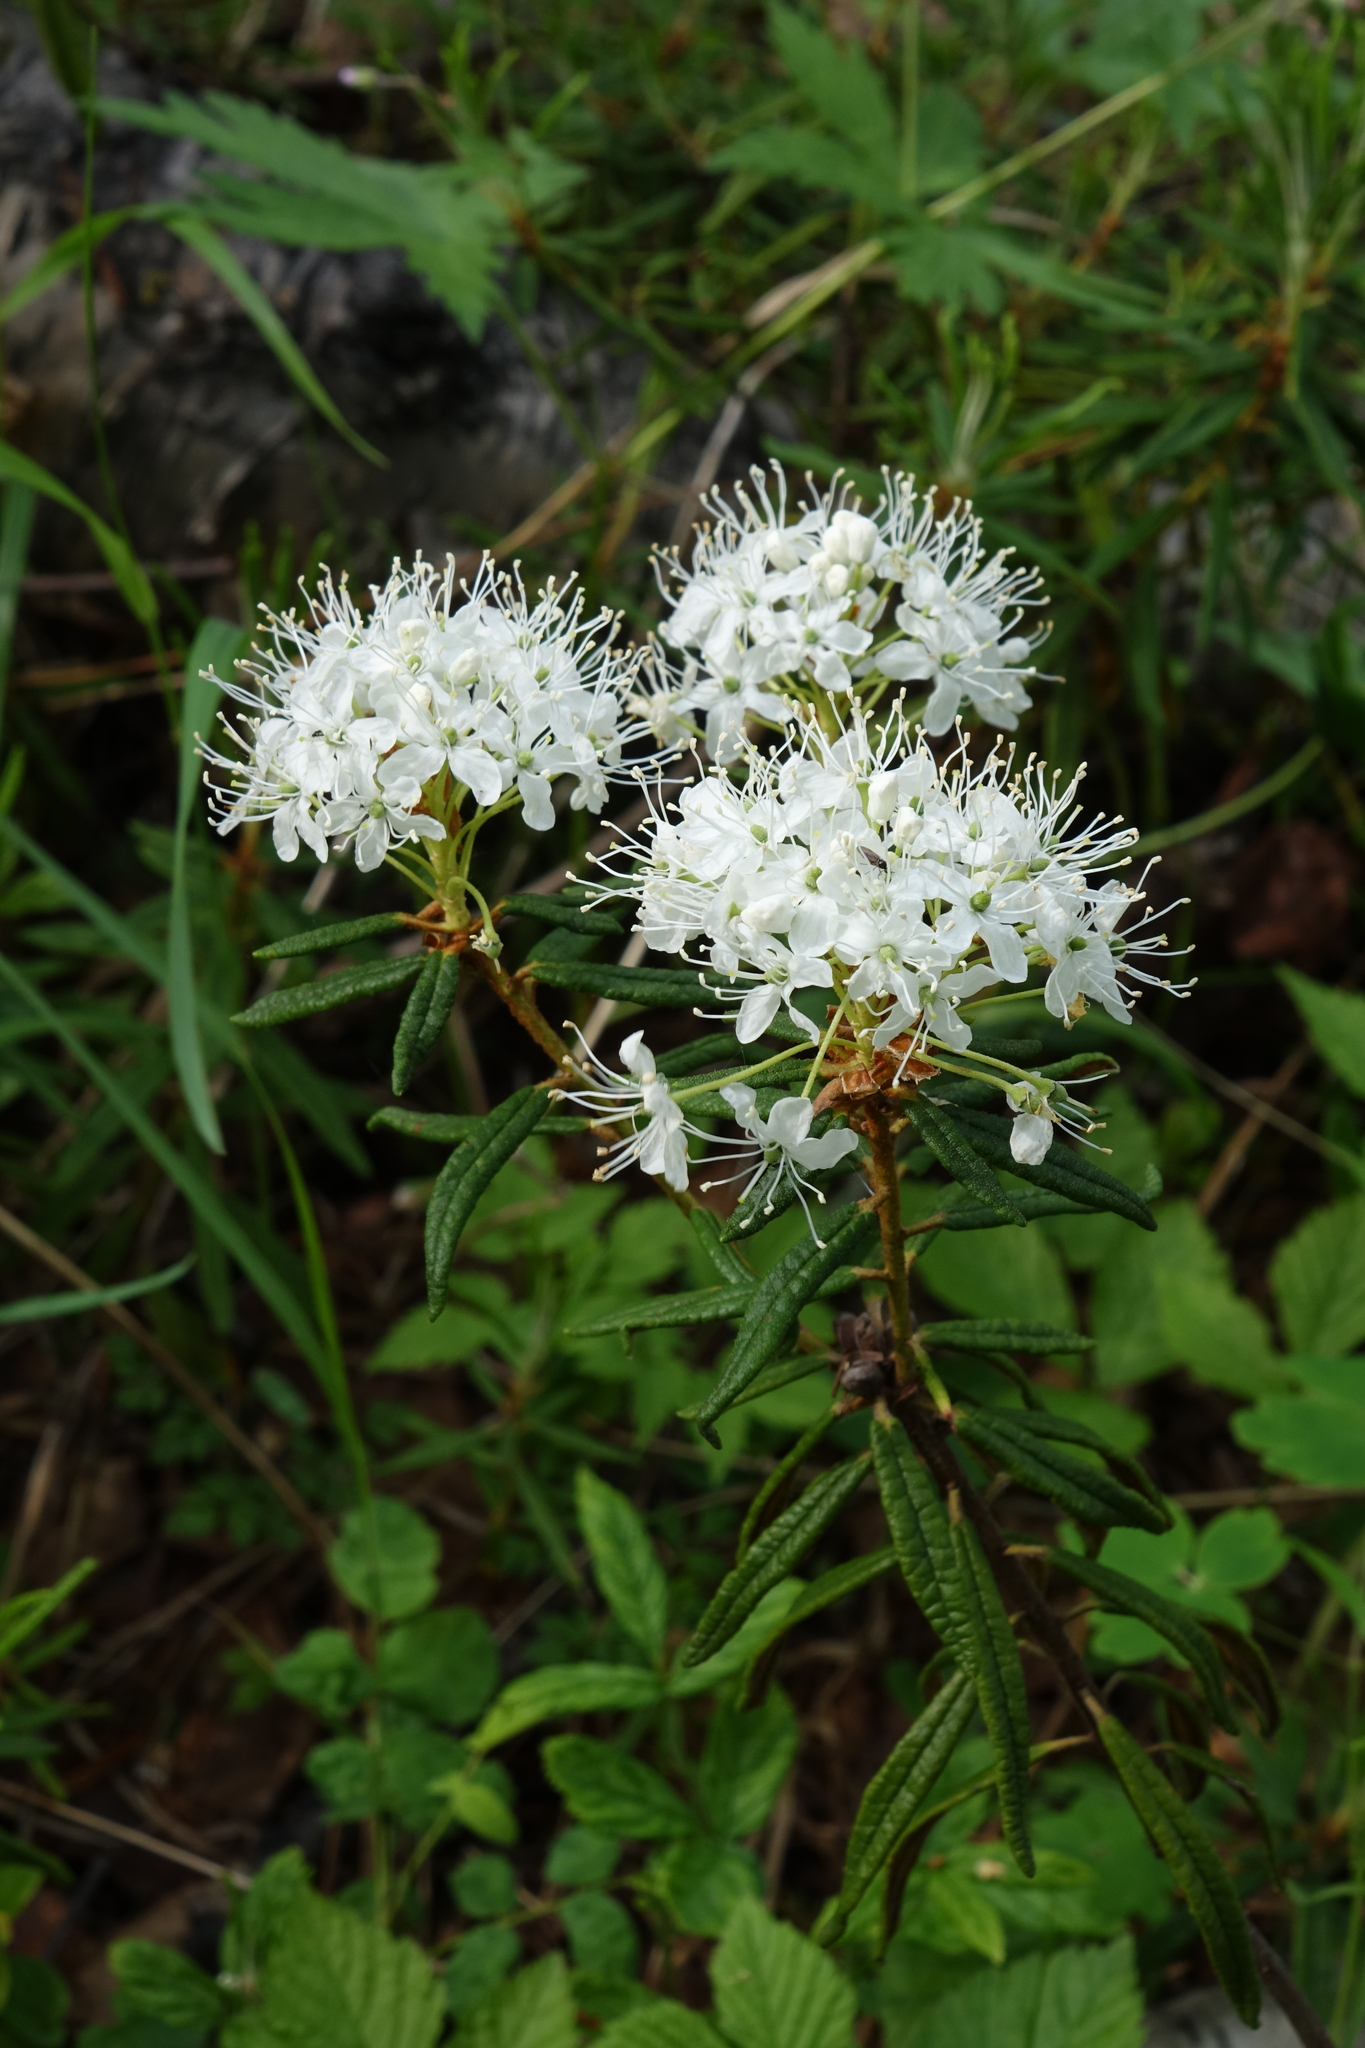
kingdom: Plantae
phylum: Tracheophyta
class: Magnoliopsida
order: Ericales
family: Ericaceae
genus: Rhododendron
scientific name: Rhododendron tomentosum
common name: Marsh labrador tea
